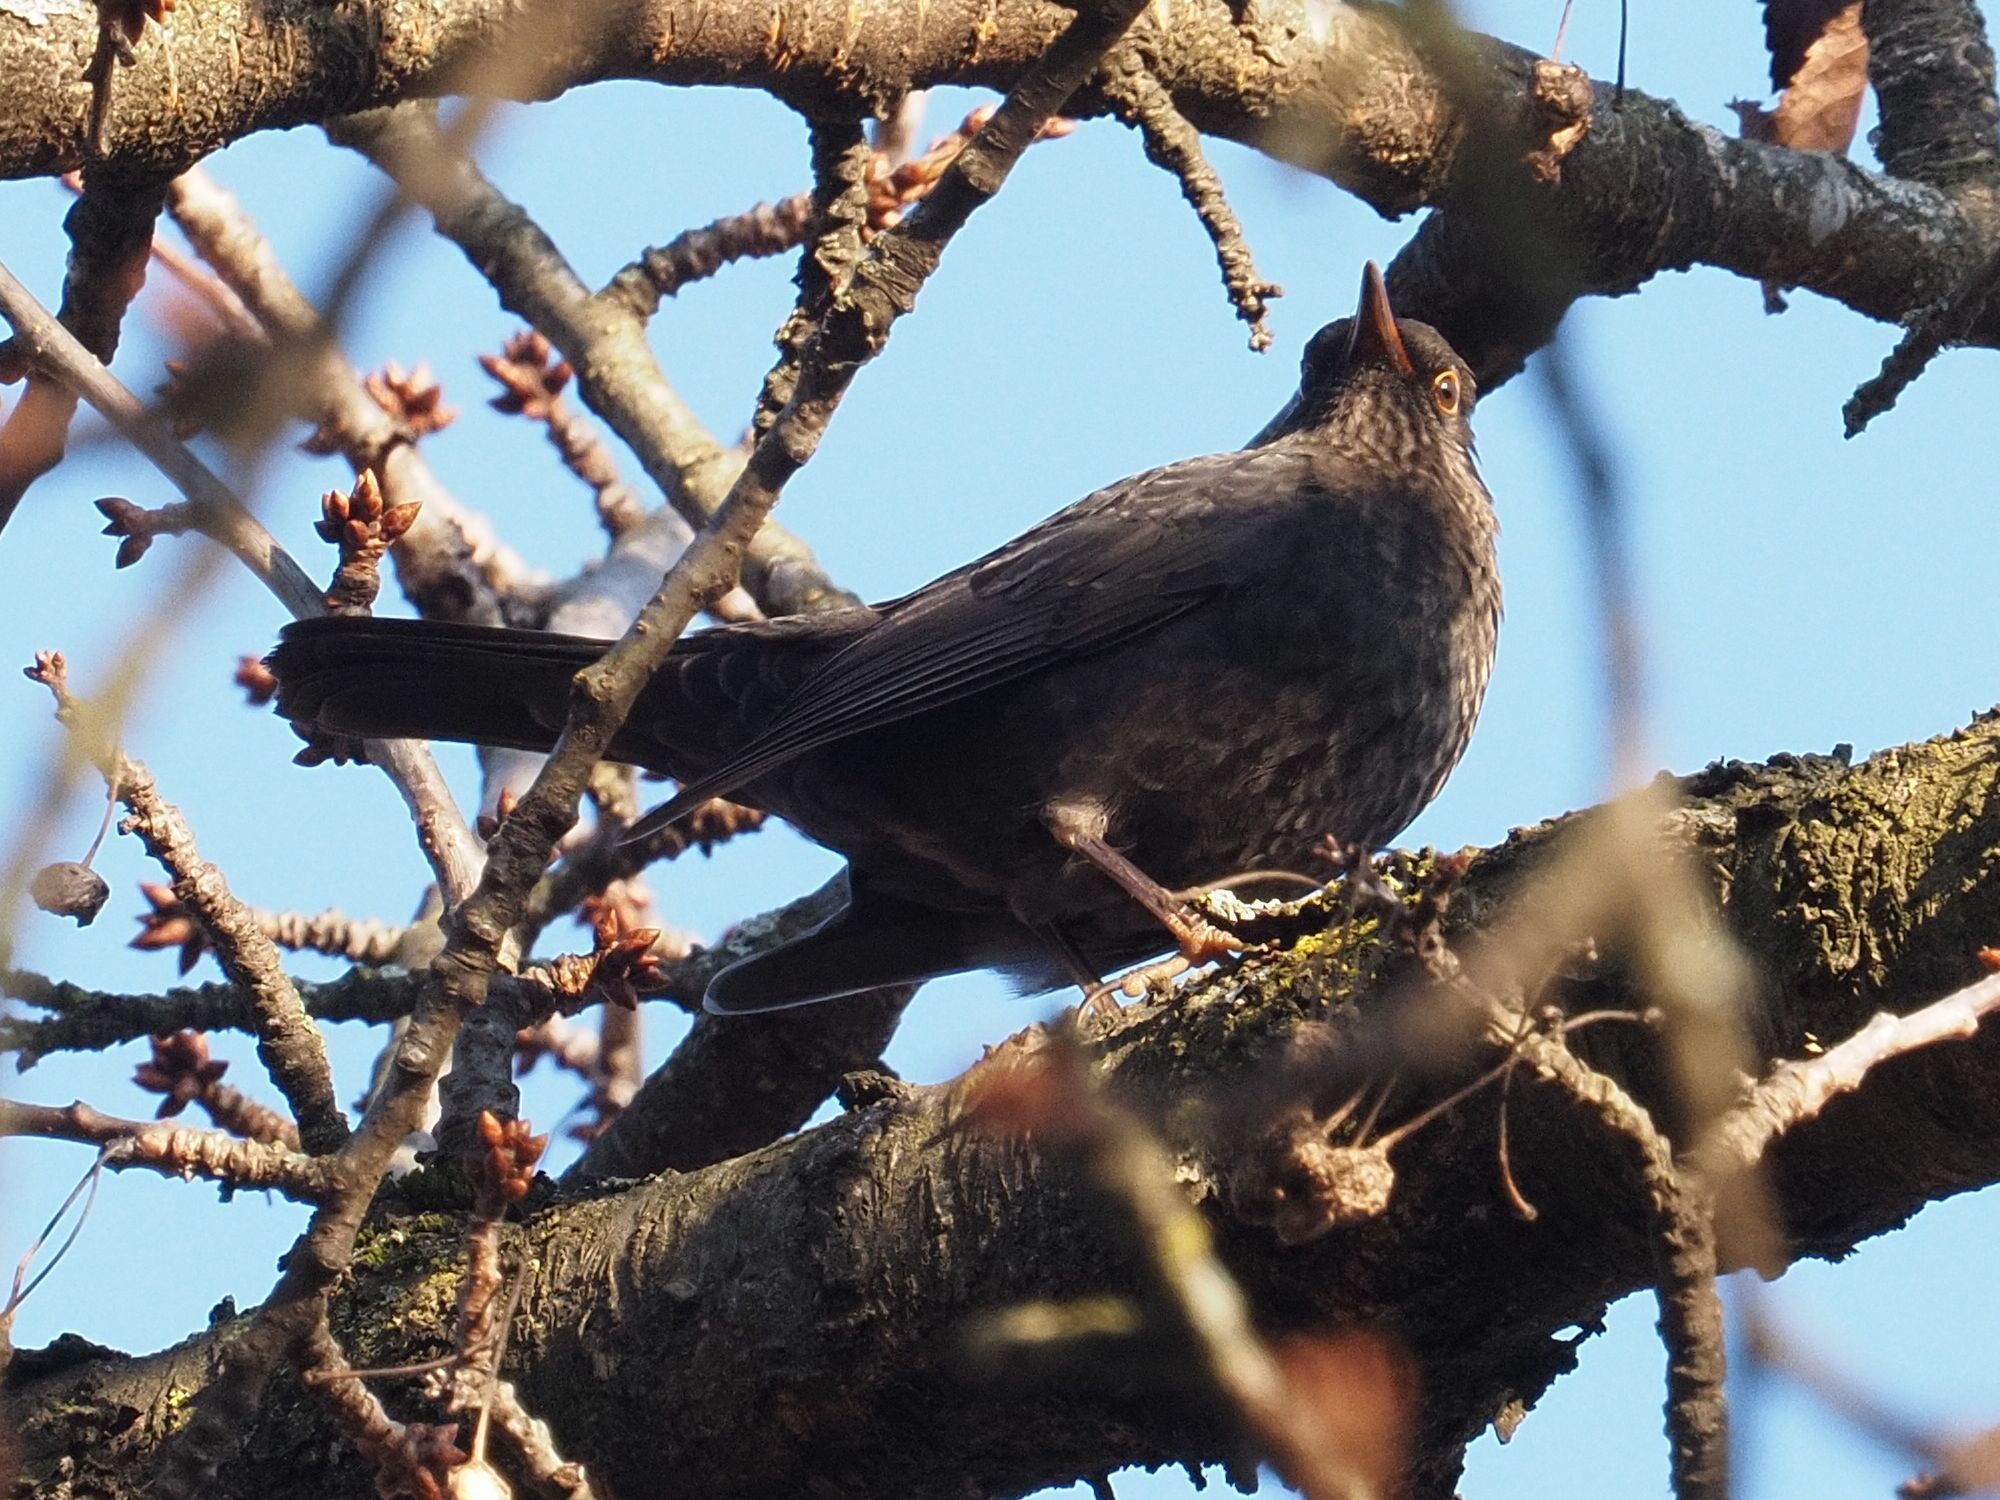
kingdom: Animalia
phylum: Chordata
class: Aves
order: Passeriformes
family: Turdidae
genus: Turdus
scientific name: Turdus merula
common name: Common blackbird
